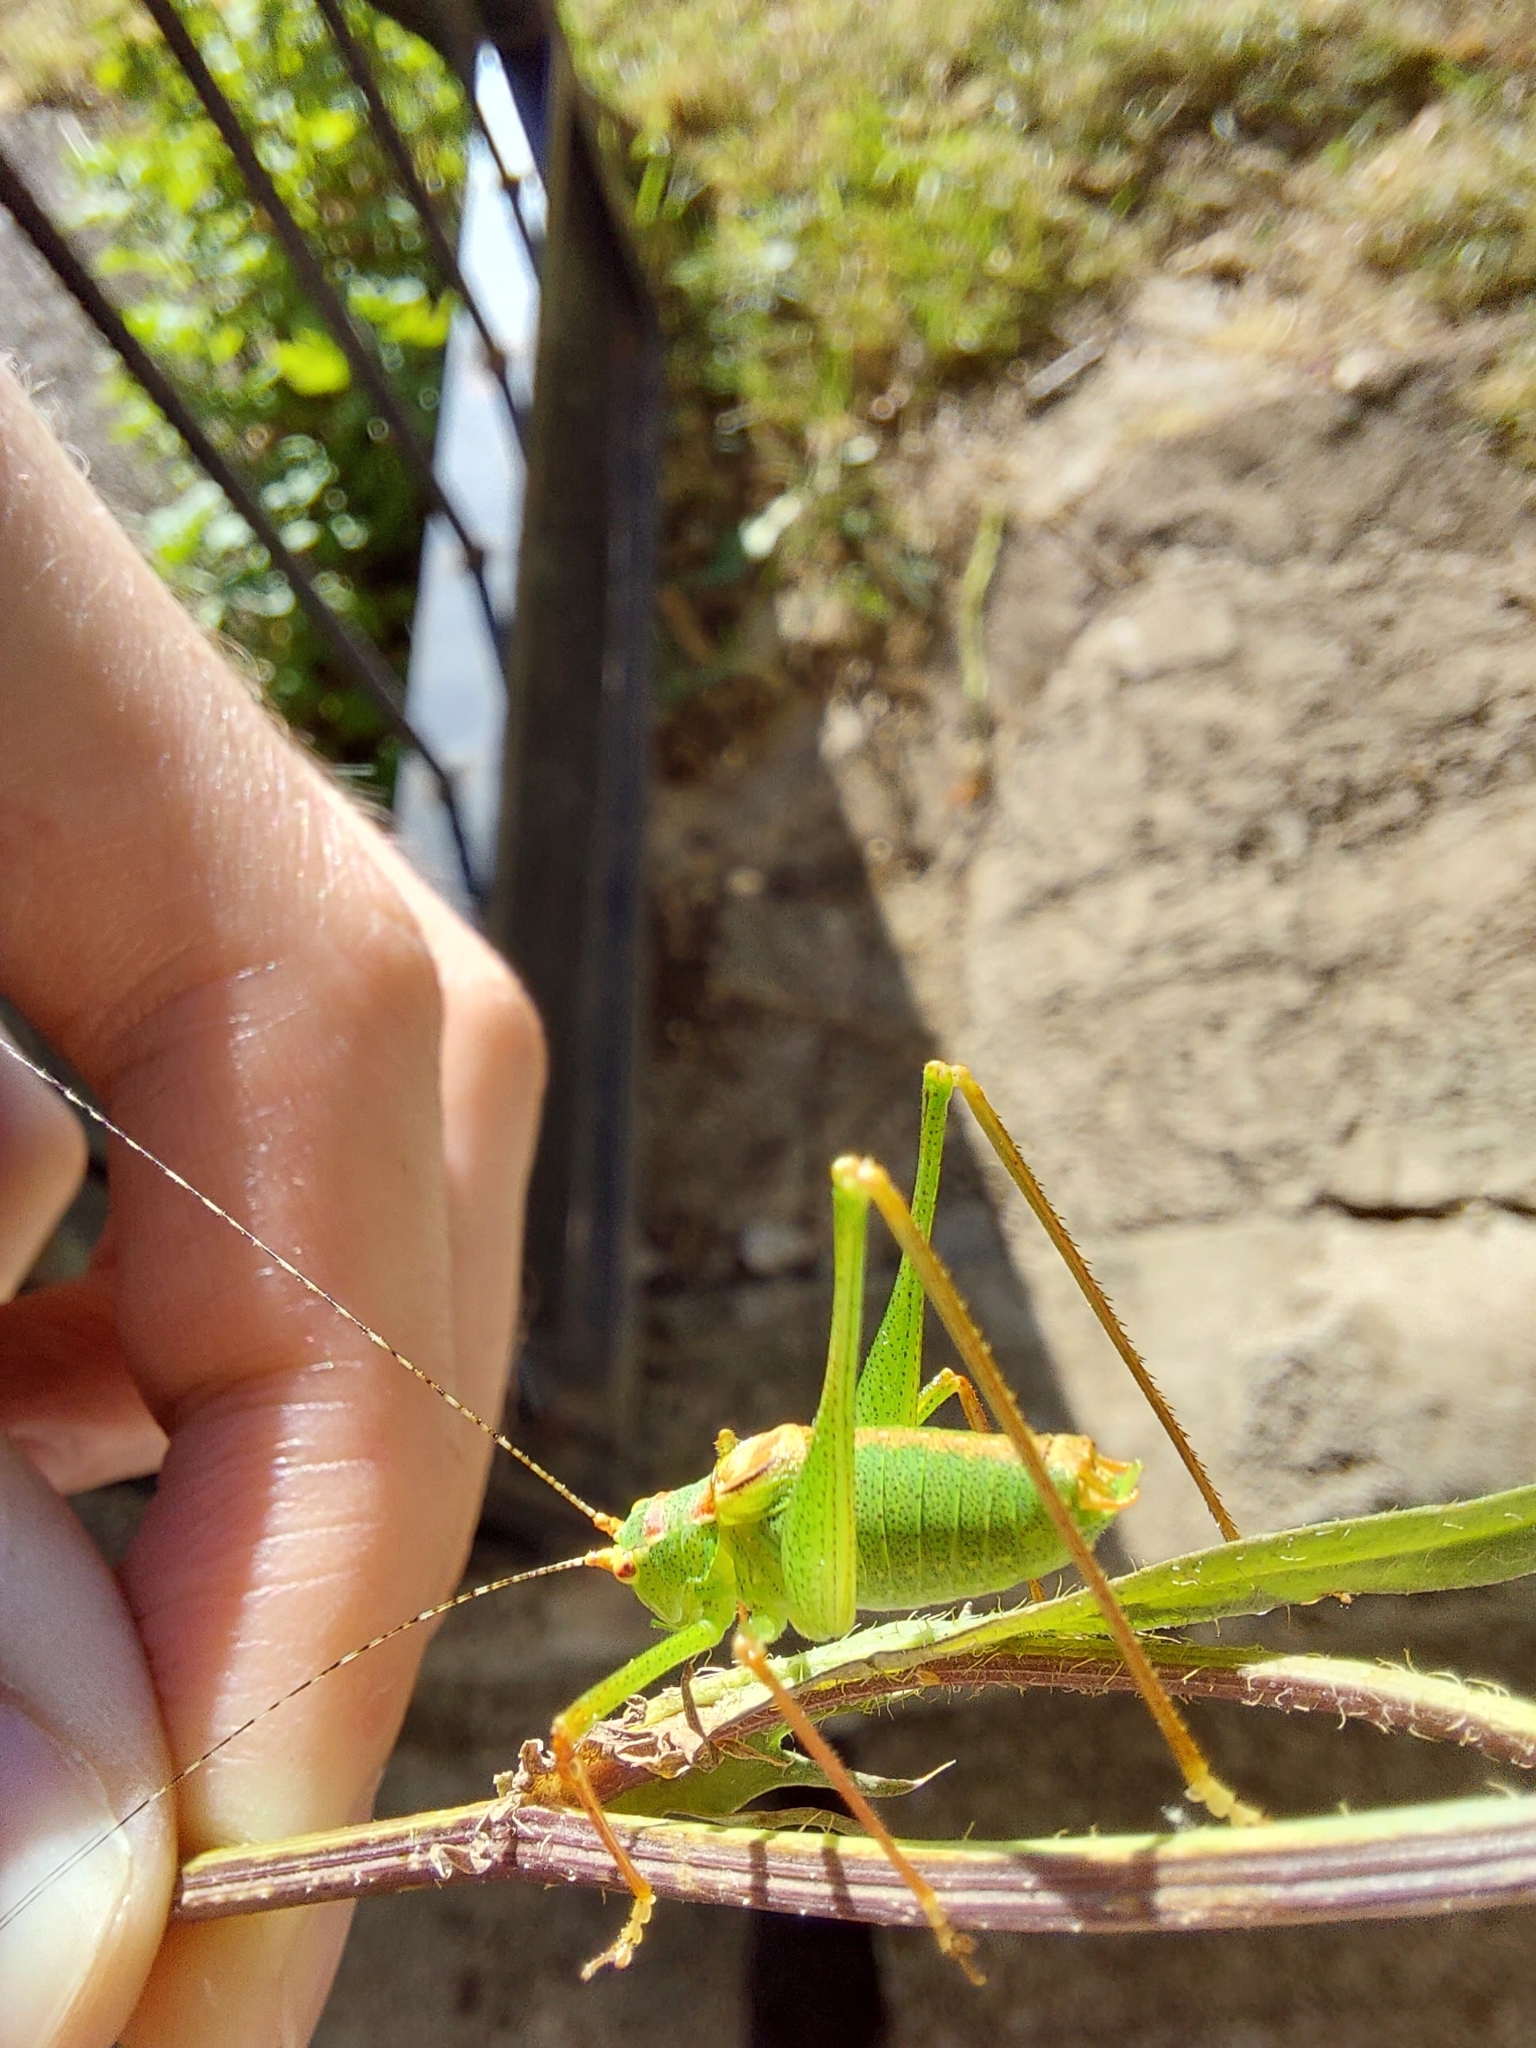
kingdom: Animalia
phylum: Arthropoda
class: Insecta
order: Orthoptera
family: Tettigoniidae
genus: Leptophyes
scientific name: Leptophyes laticauda
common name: Long-tailed speckled bush-cricket
